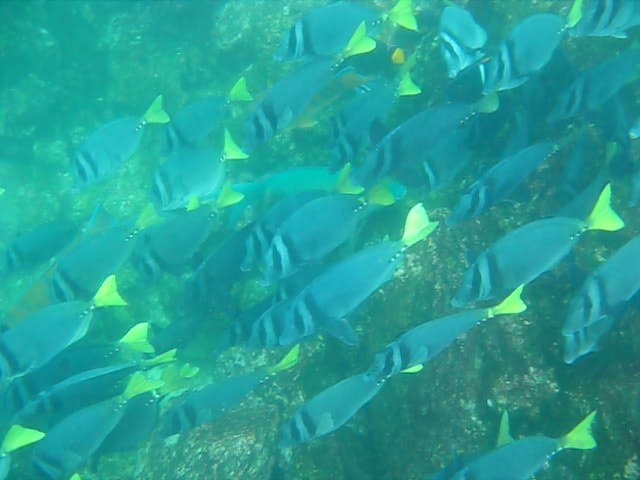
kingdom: Animalia
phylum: Chordata
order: Perciformes
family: Acanthuridae
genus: Prionurus
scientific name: Prionurus laticlavius
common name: Razor surgeonfish
